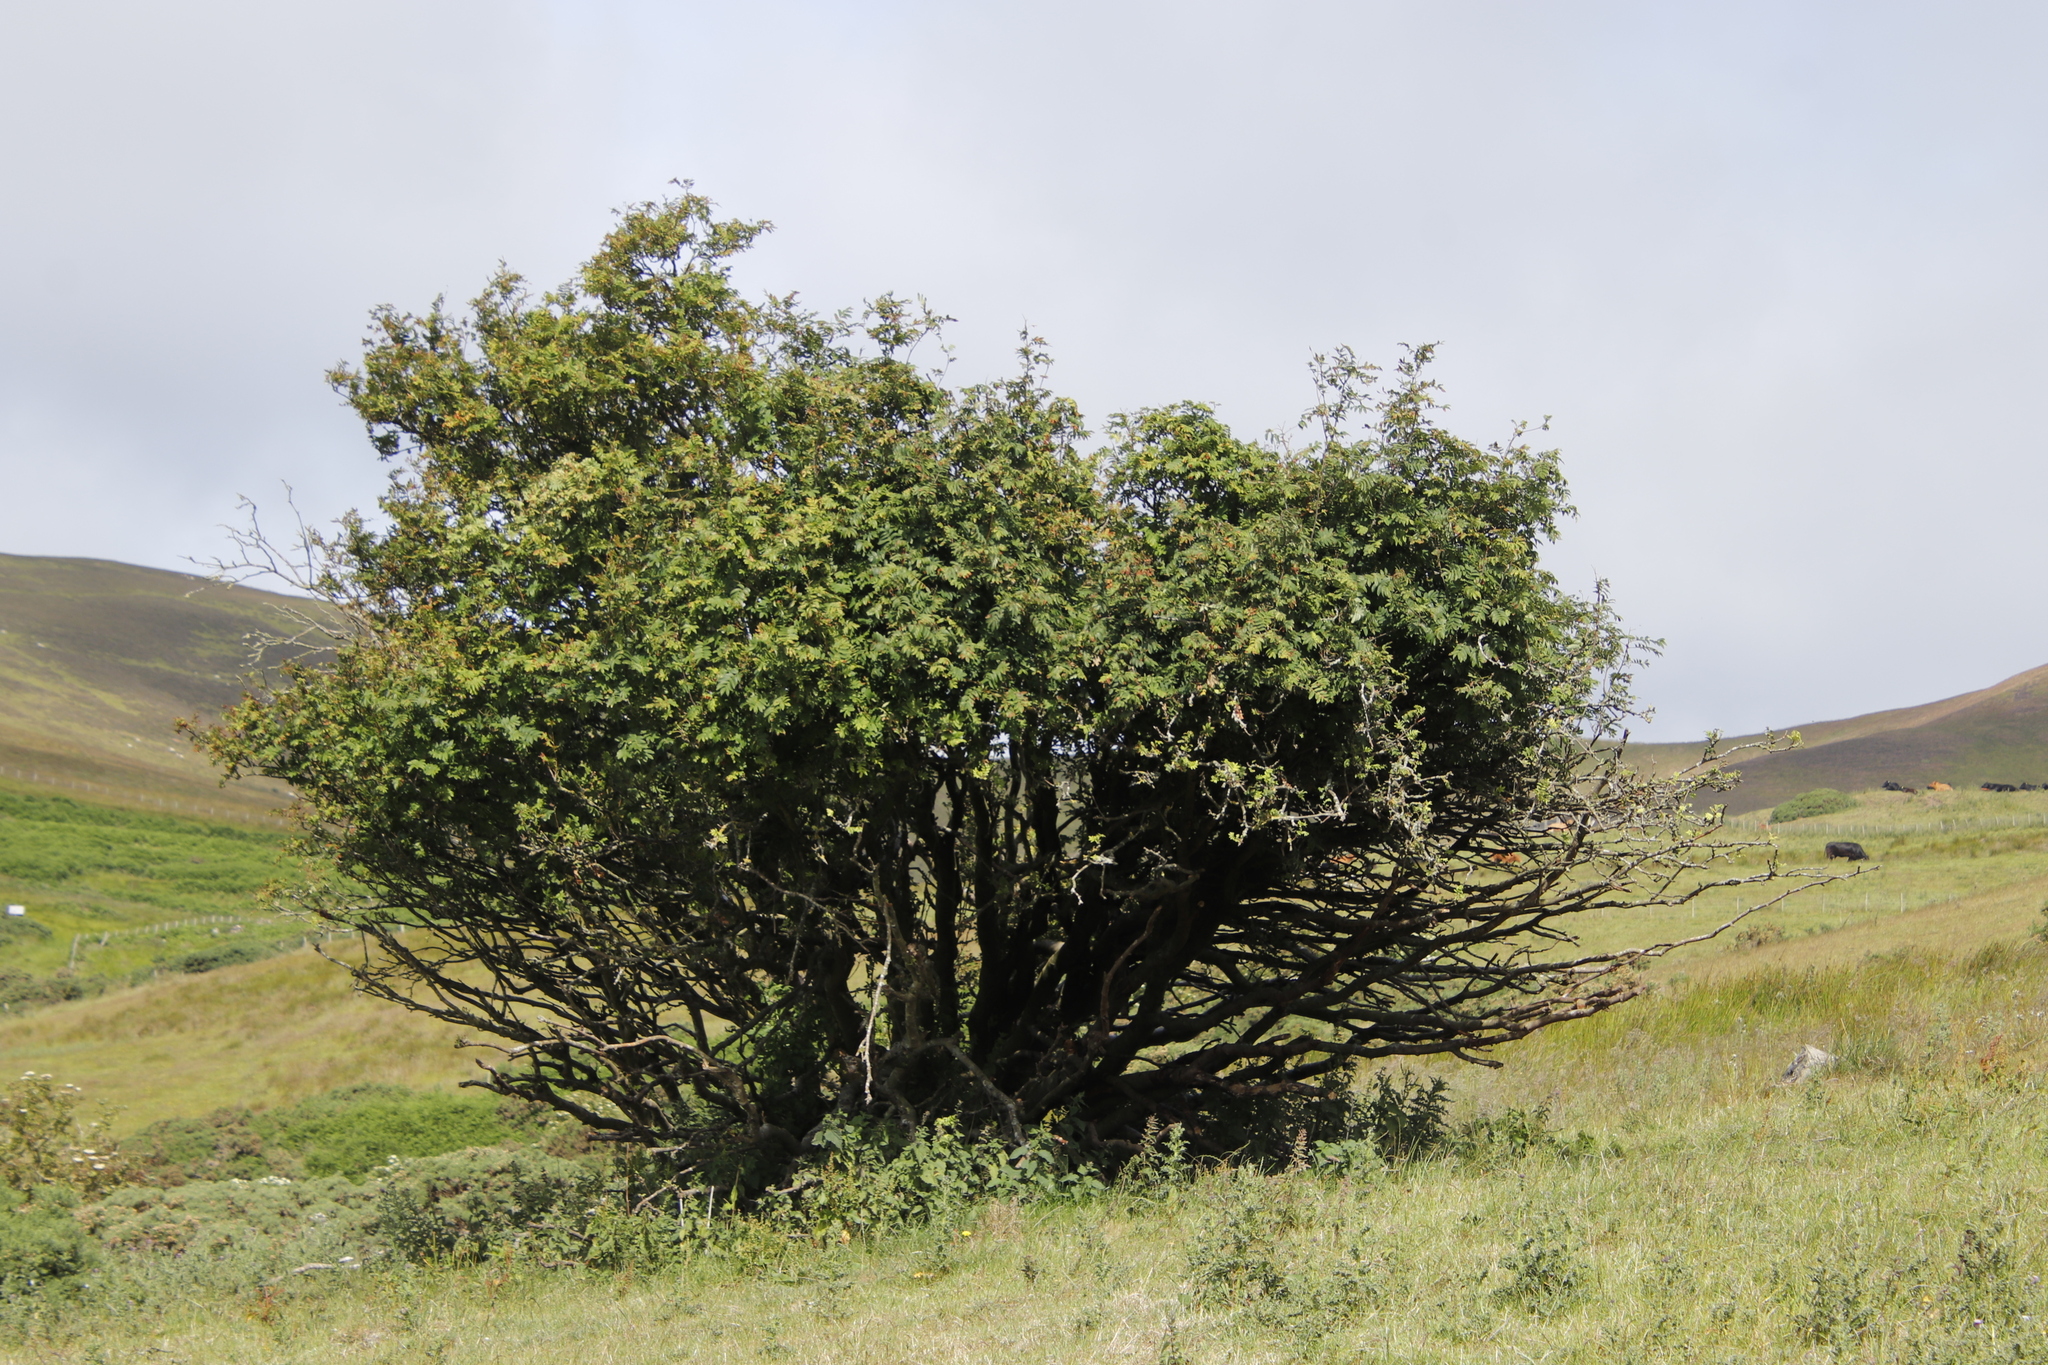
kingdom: Plantae
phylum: Tracheophyta
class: Magnoliopsida
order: Rosales
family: Rosaceae
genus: Sorbus
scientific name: Sorbus aucuparia
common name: Rowan
